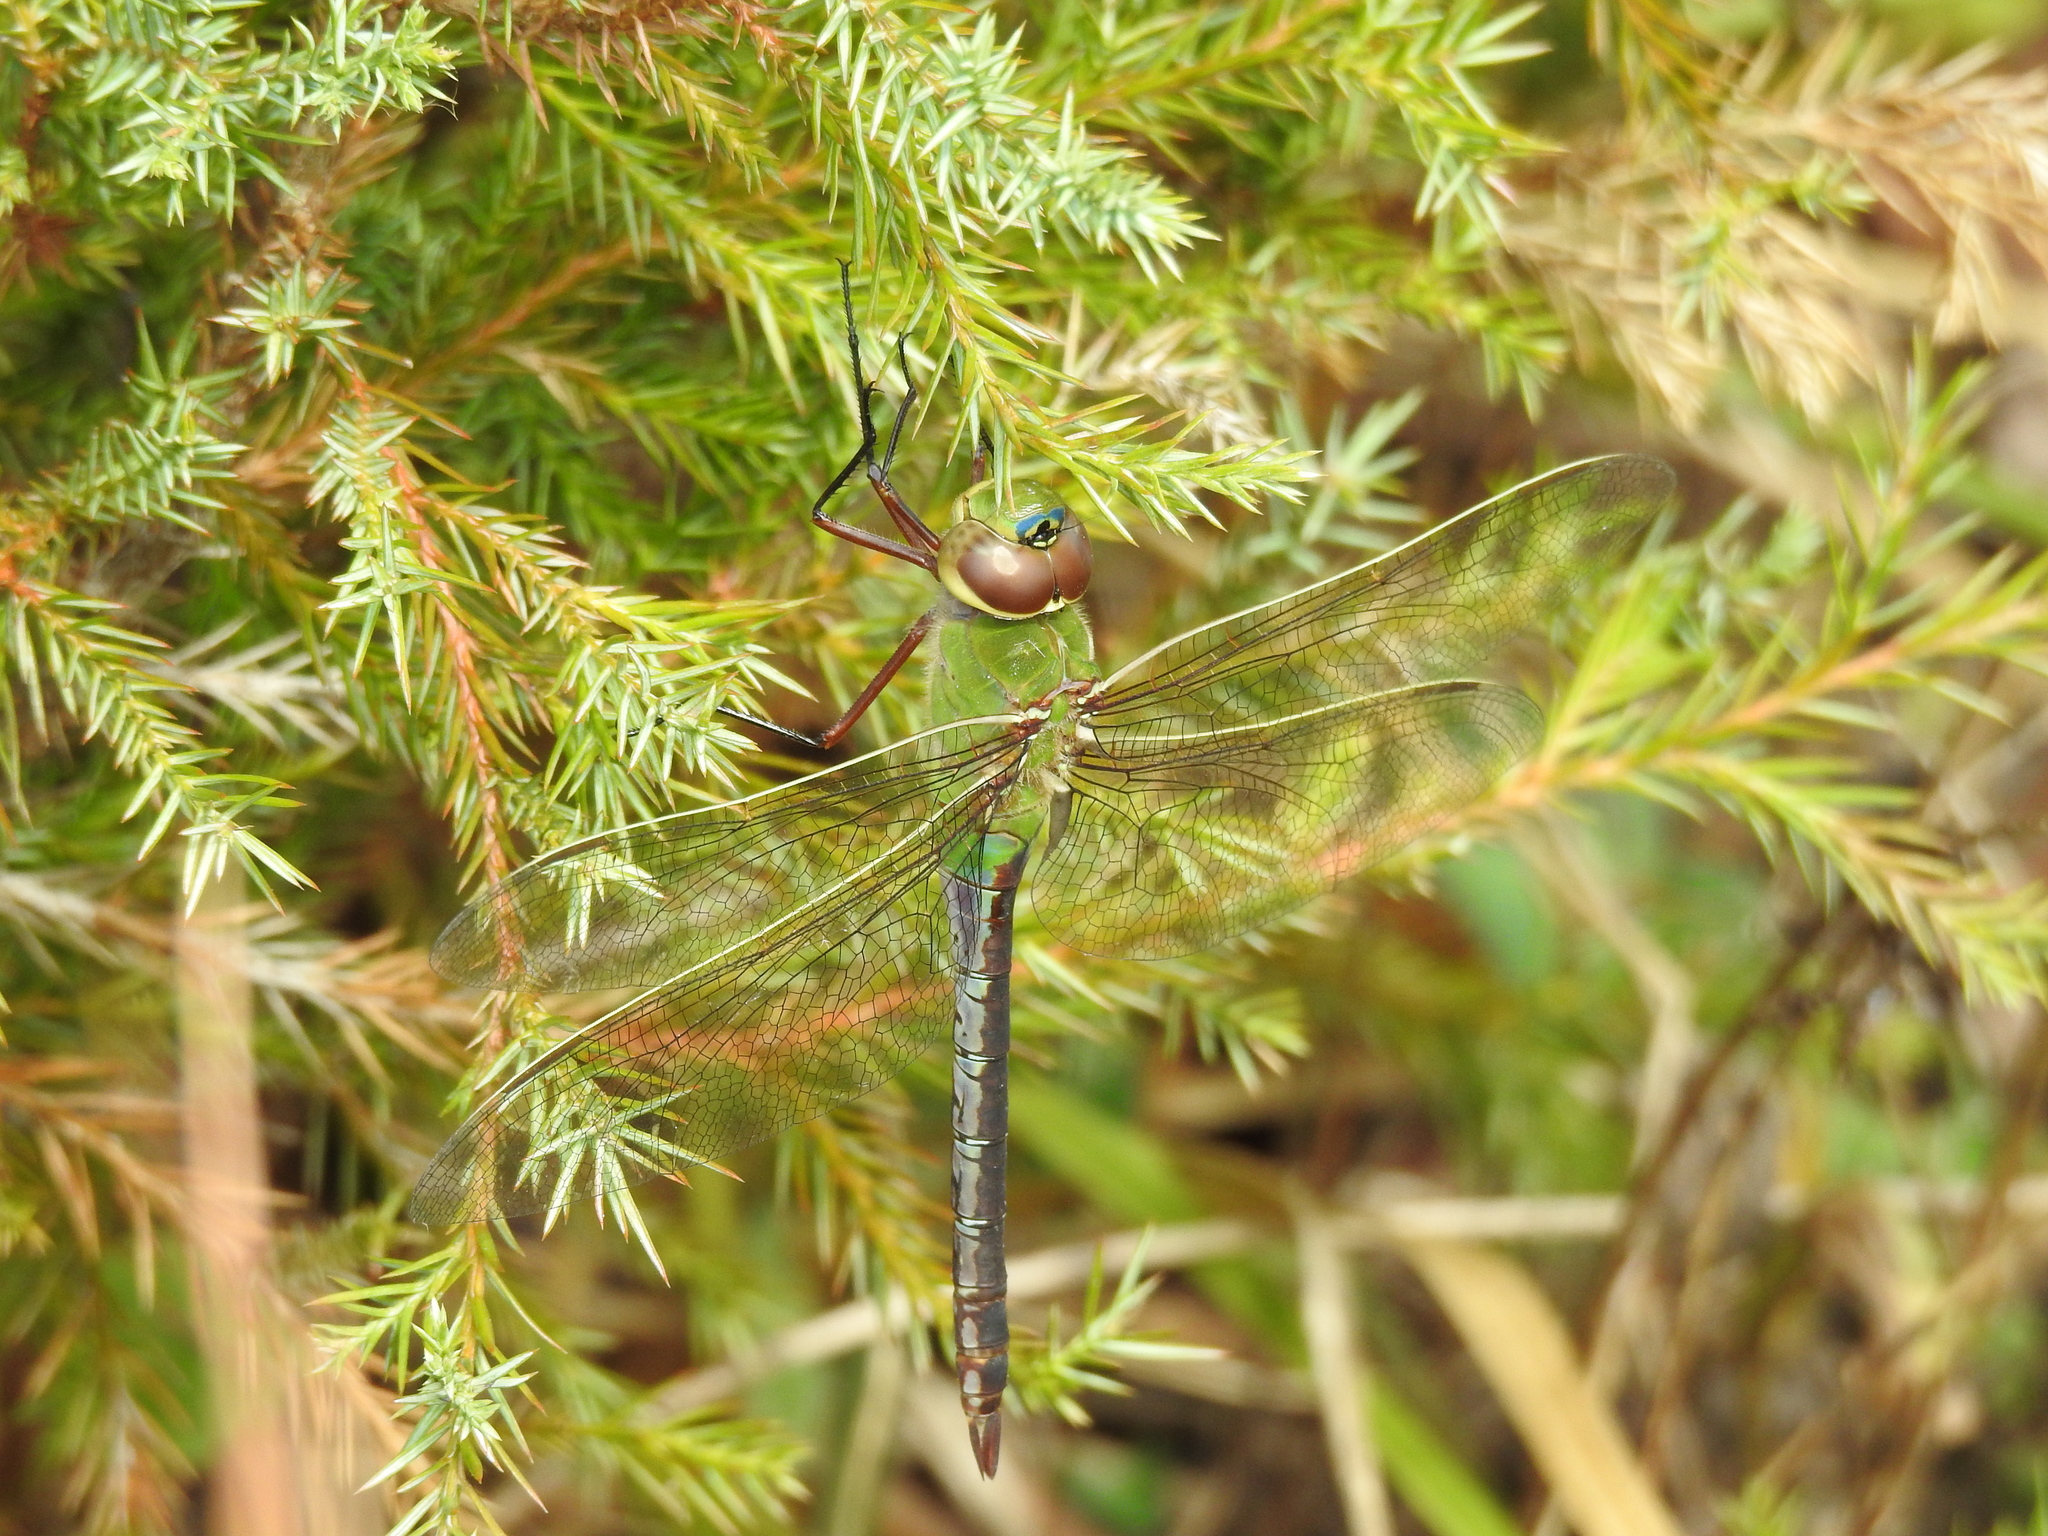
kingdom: Animalia
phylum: Arthropoda
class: Insecta
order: Odonata
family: Aeshnidae
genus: Anax
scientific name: Anax junius
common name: Common green darner
